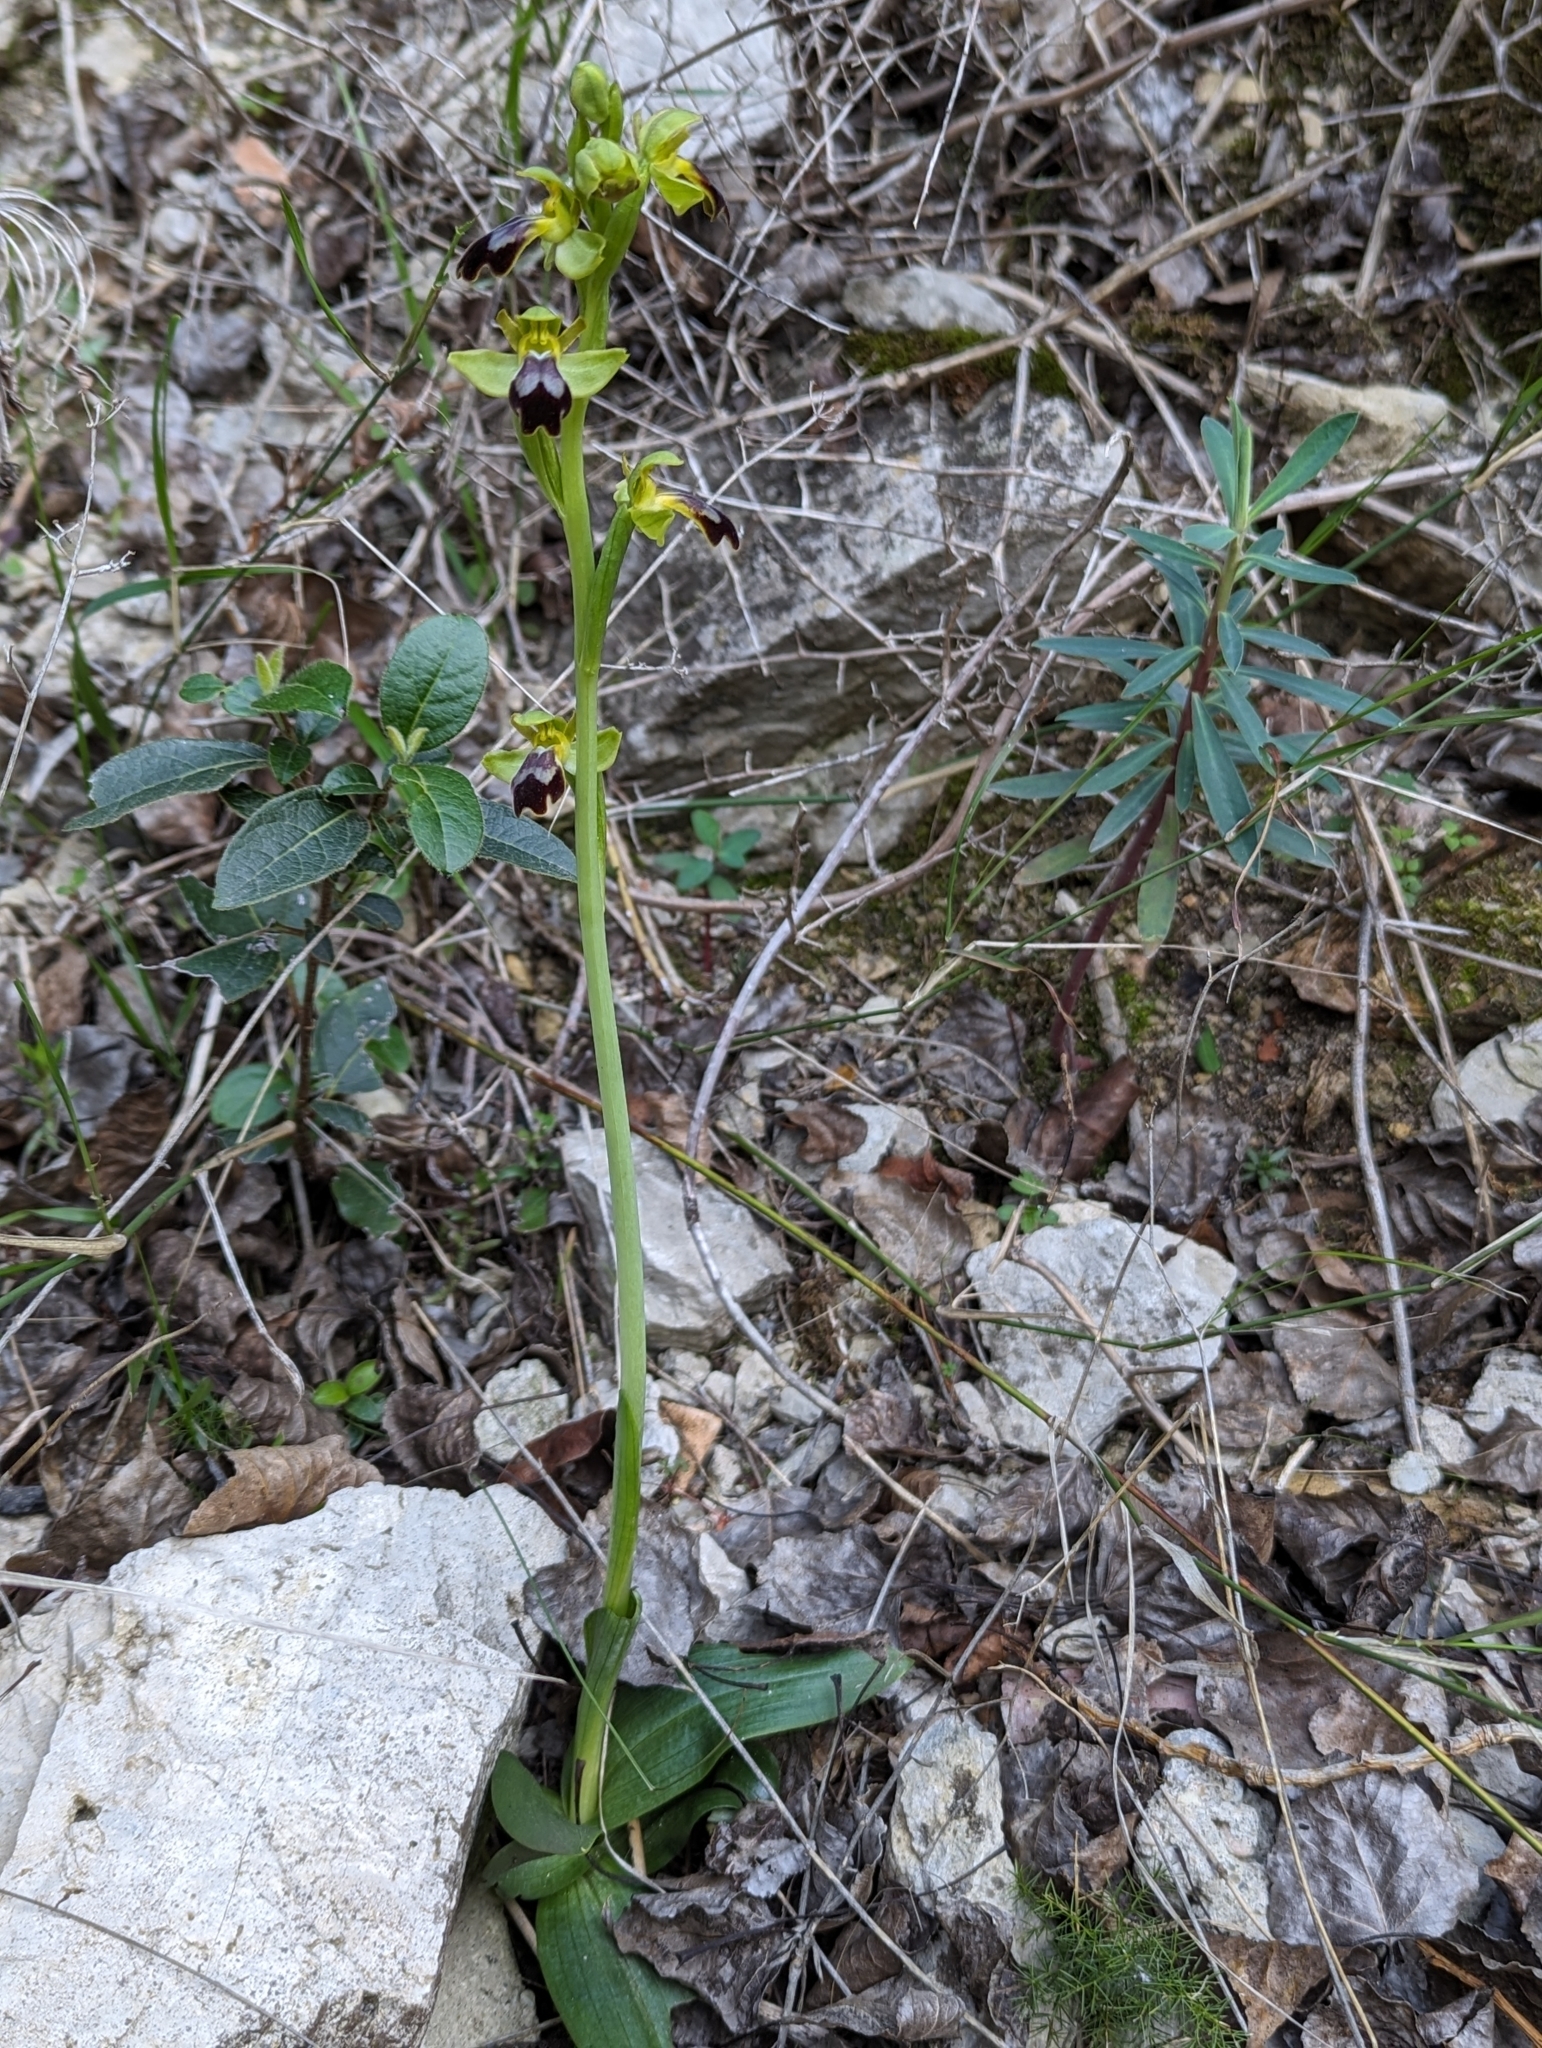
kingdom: Plantae
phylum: Tracheophyta
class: Liliopsida
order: Asparagales
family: Orchidaceae
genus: Ophrys
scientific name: Ophrys fusca
